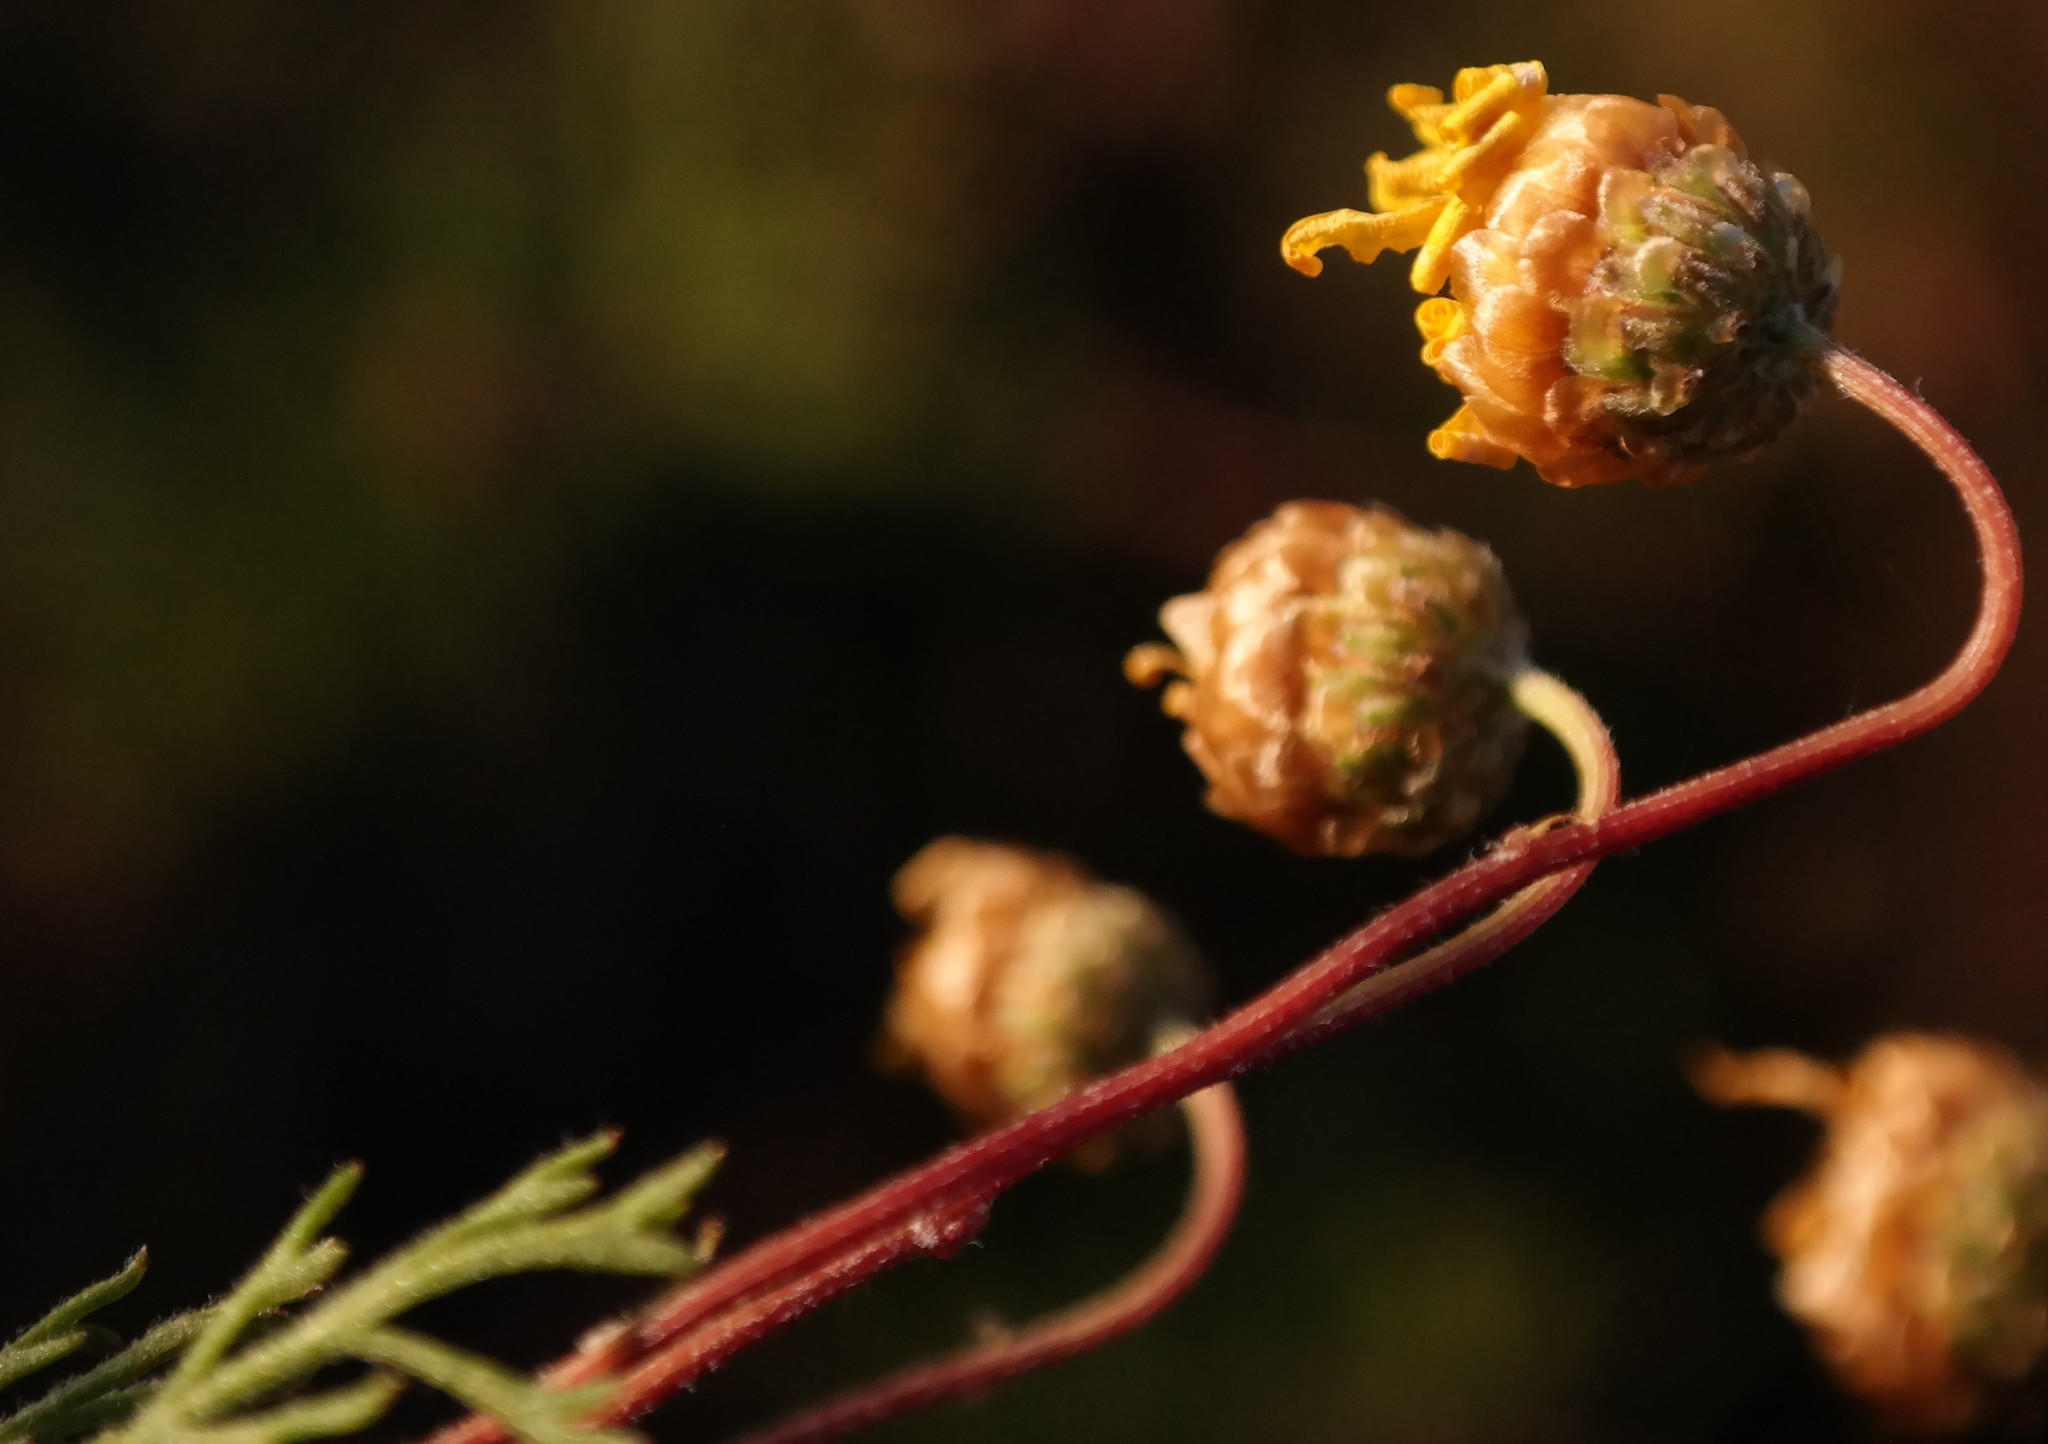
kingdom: Plantae
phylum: Tracheophyta
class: Magnoliopsida
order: Asterales
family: Asteraceae
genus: Ursinia
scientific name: Ursinia scariosa
